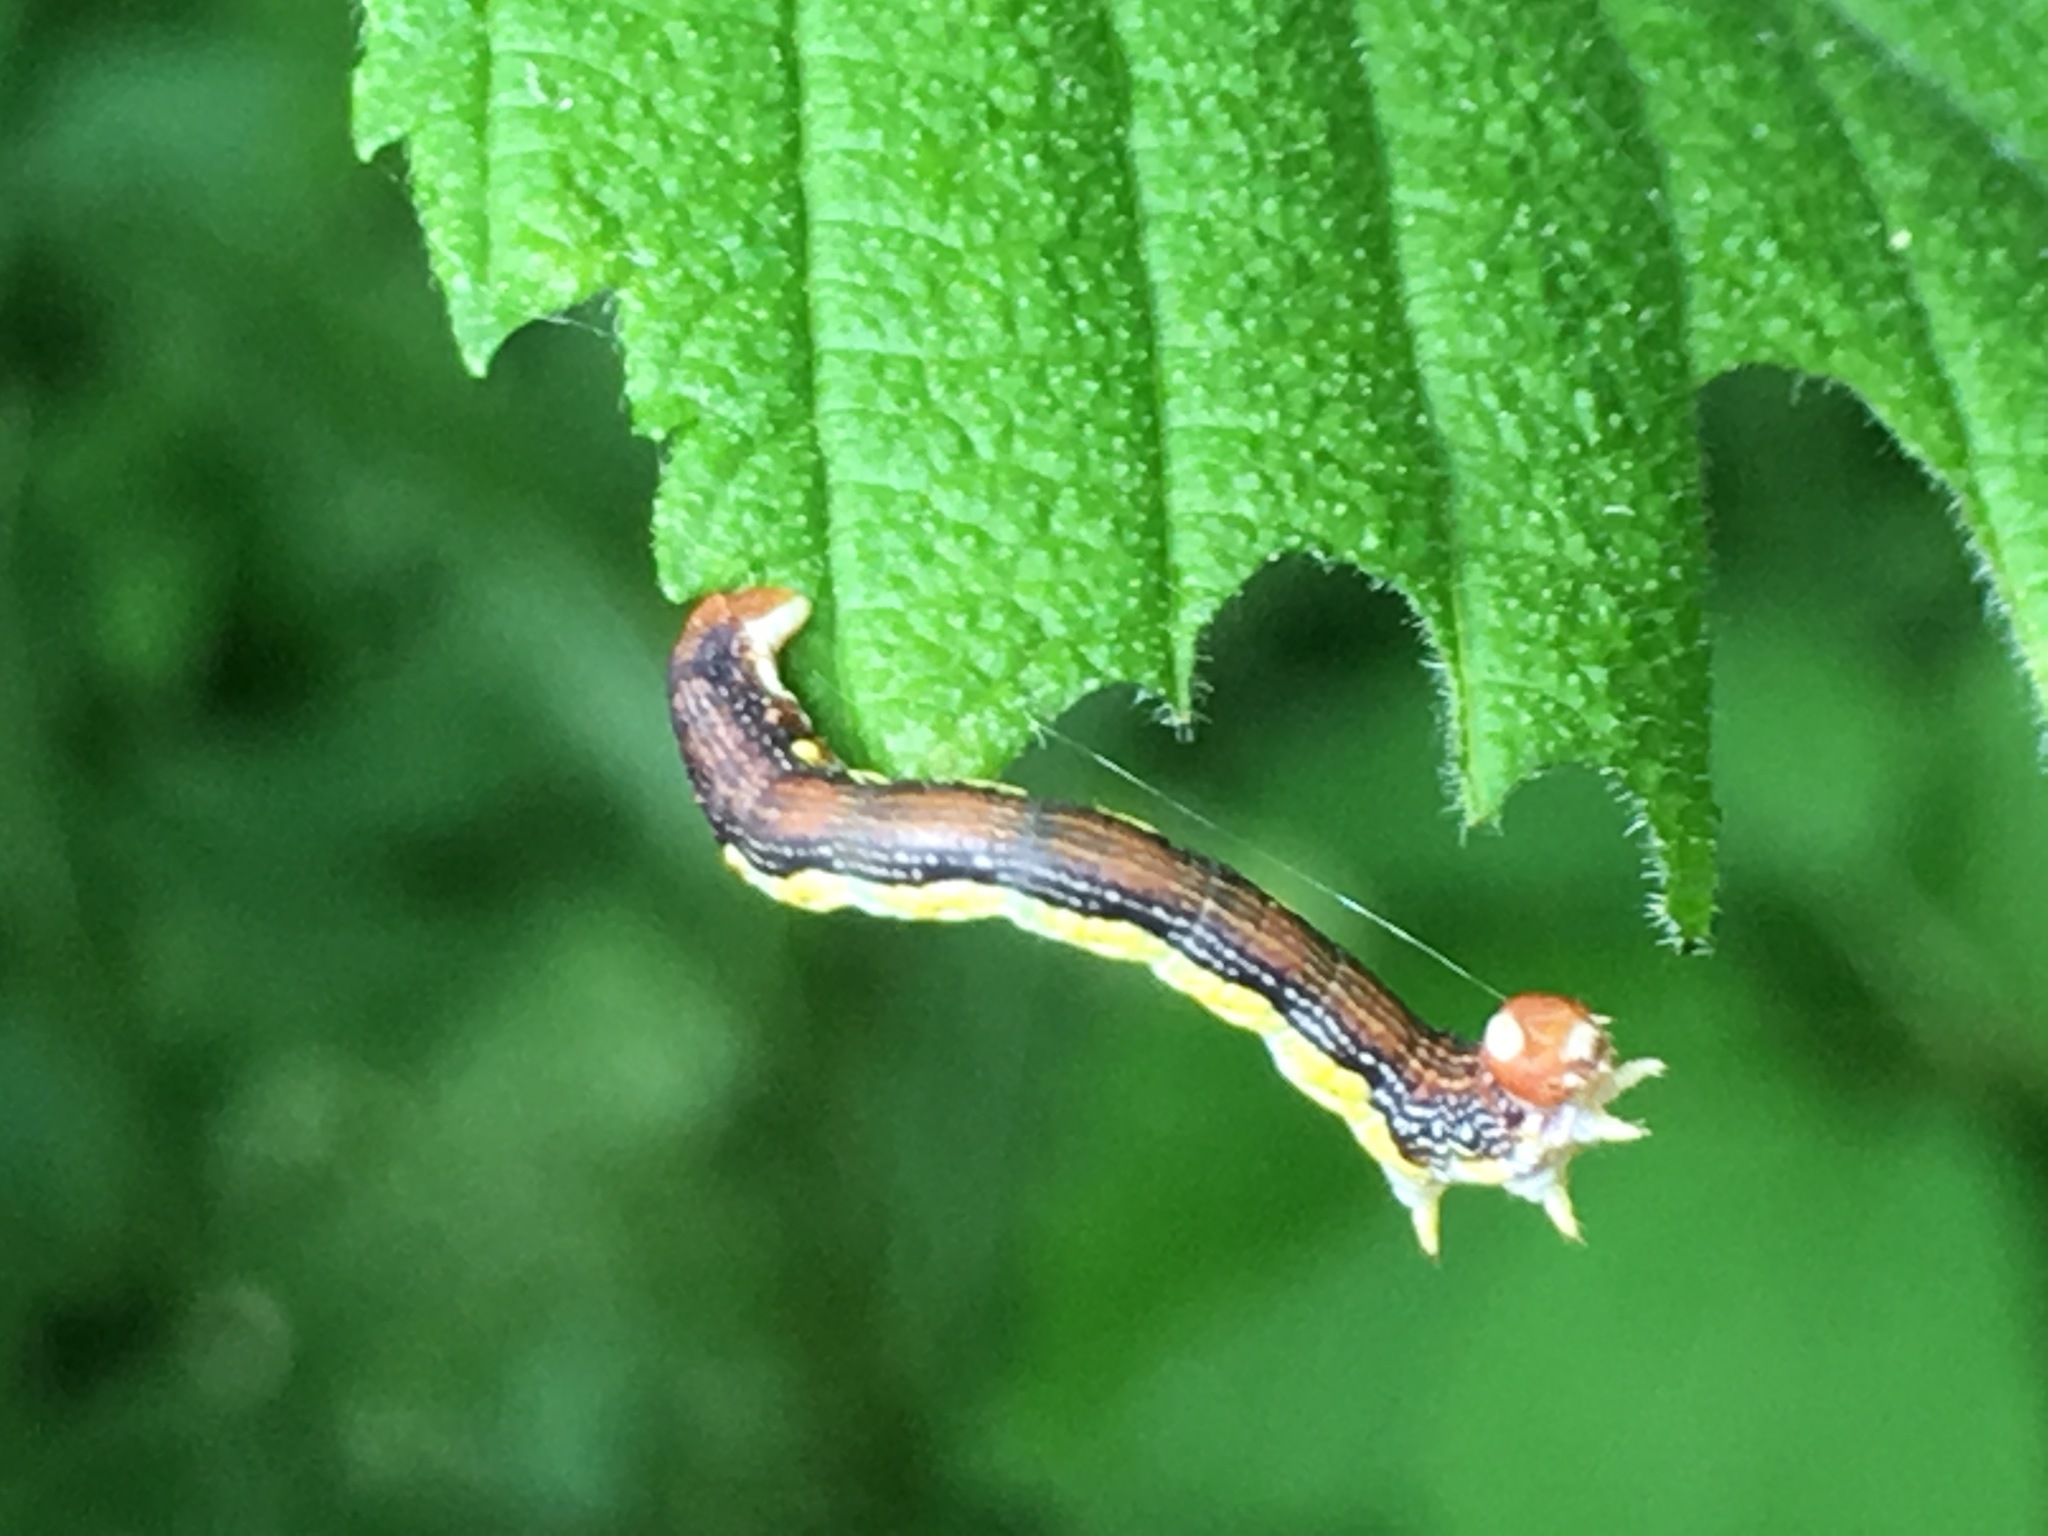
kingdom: Animalia
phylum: Arthropoda
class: Insecta
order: Lepidoptera
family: Geometridae
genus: Erannis
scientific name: Erannis tiliaria
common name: Linden looper
